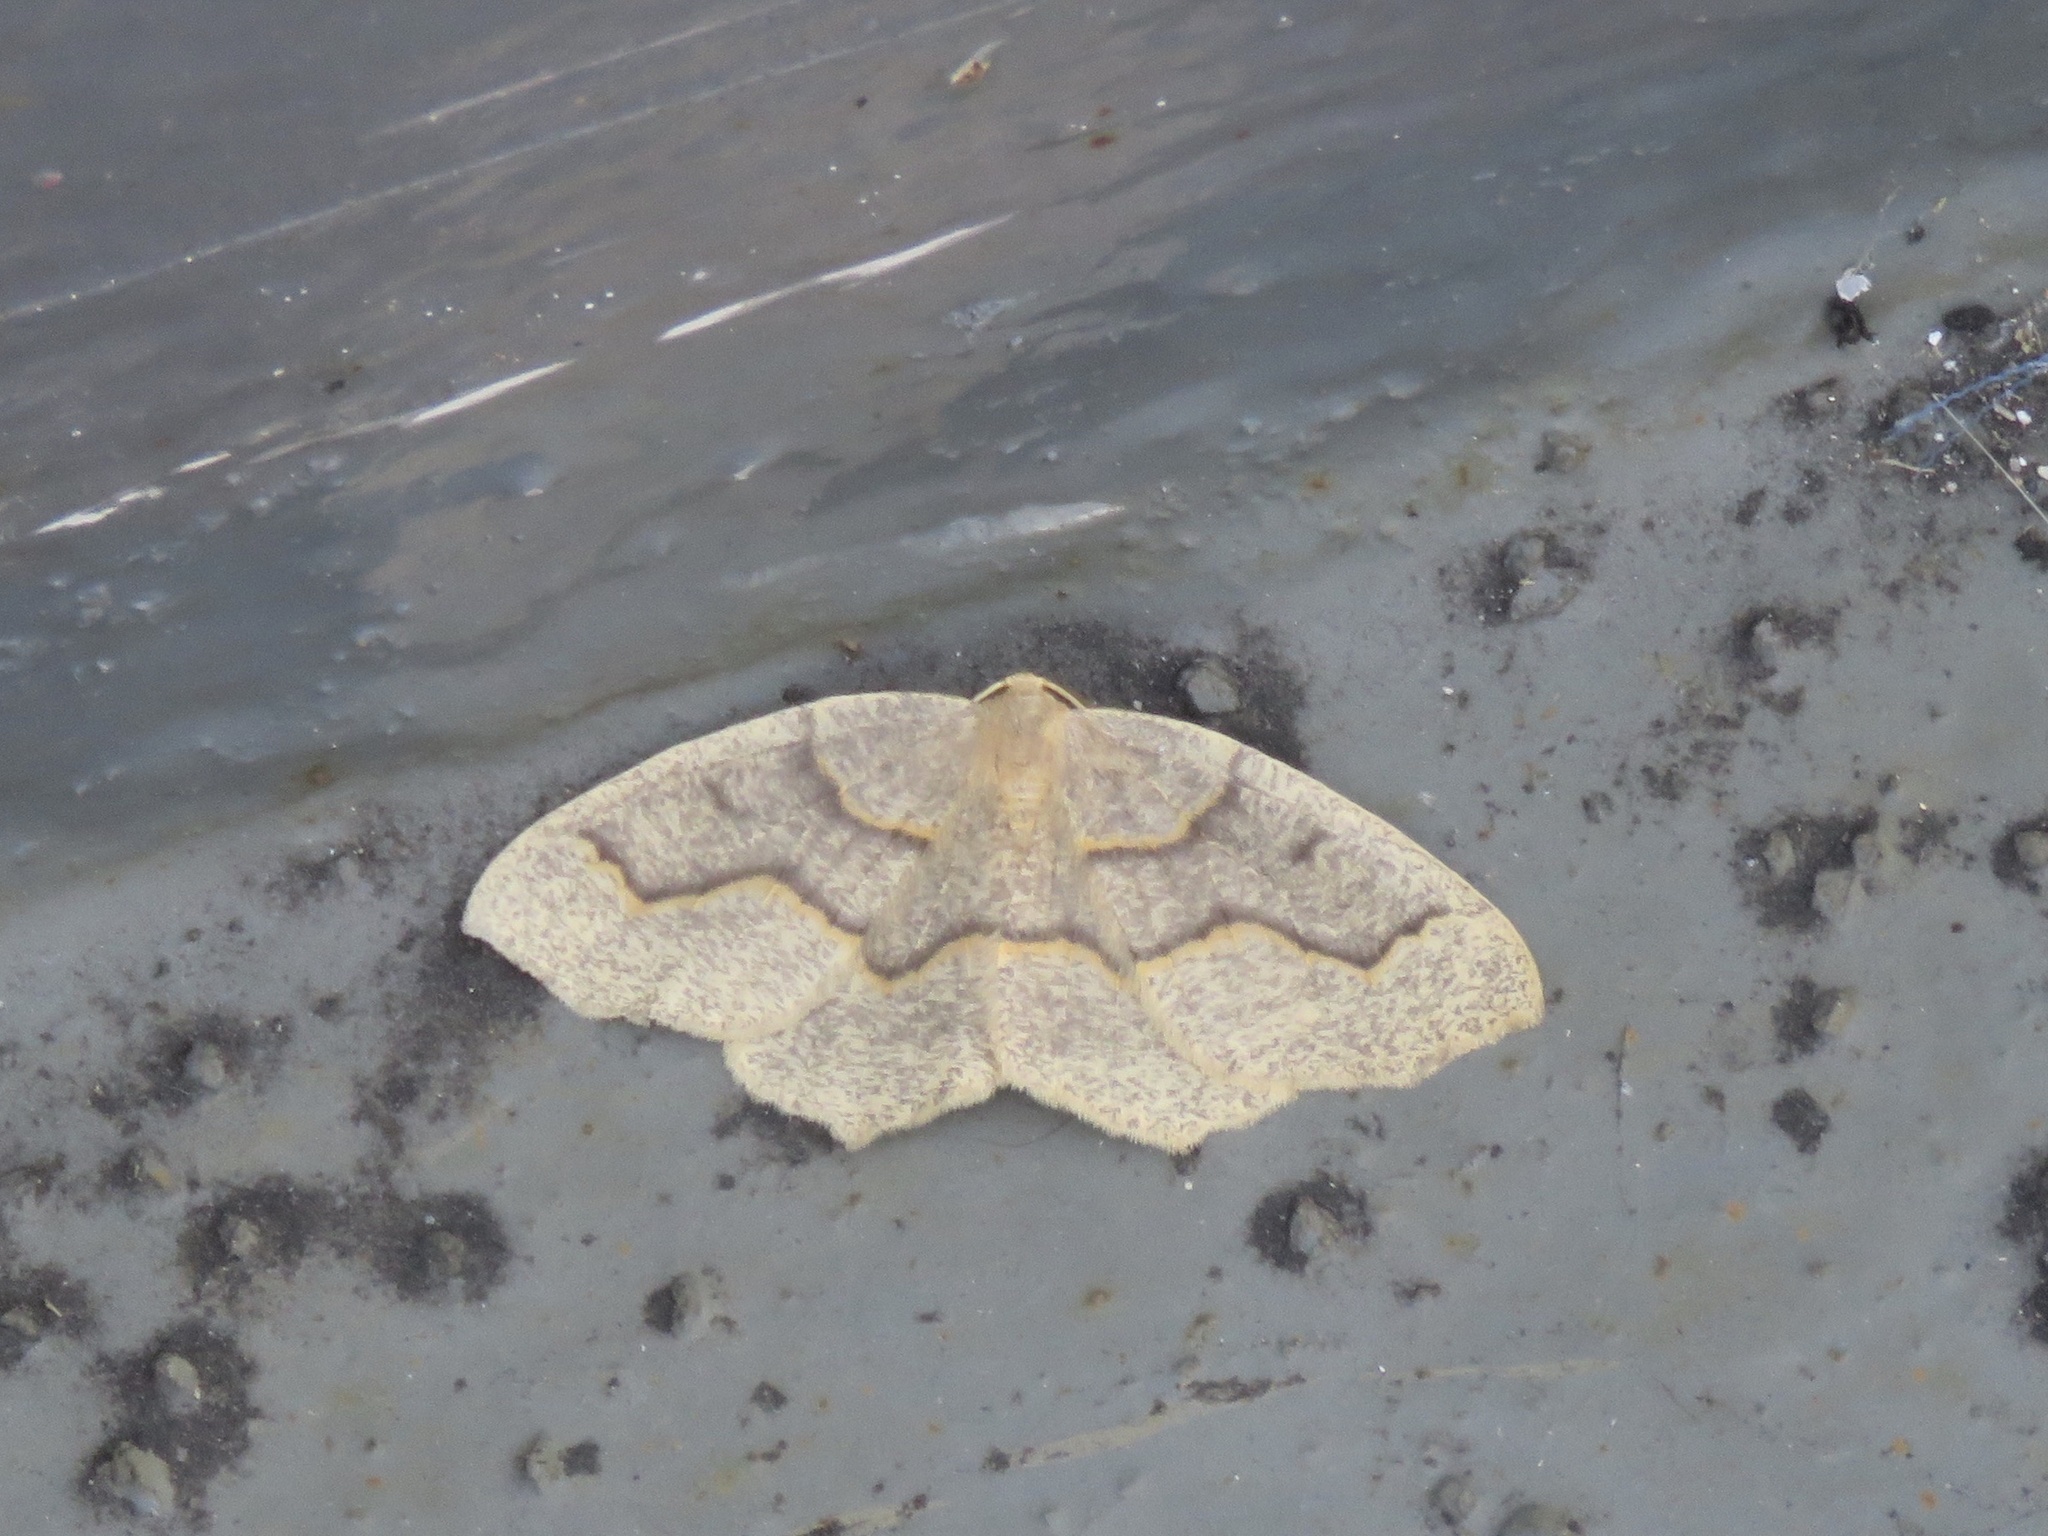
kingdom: Animalia
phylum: Arthropoda
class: Insecta
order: Lepidoptera
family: Geometridae
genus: Lambdina
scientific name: Lambdina fiscellaria
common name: Hemlock looper
